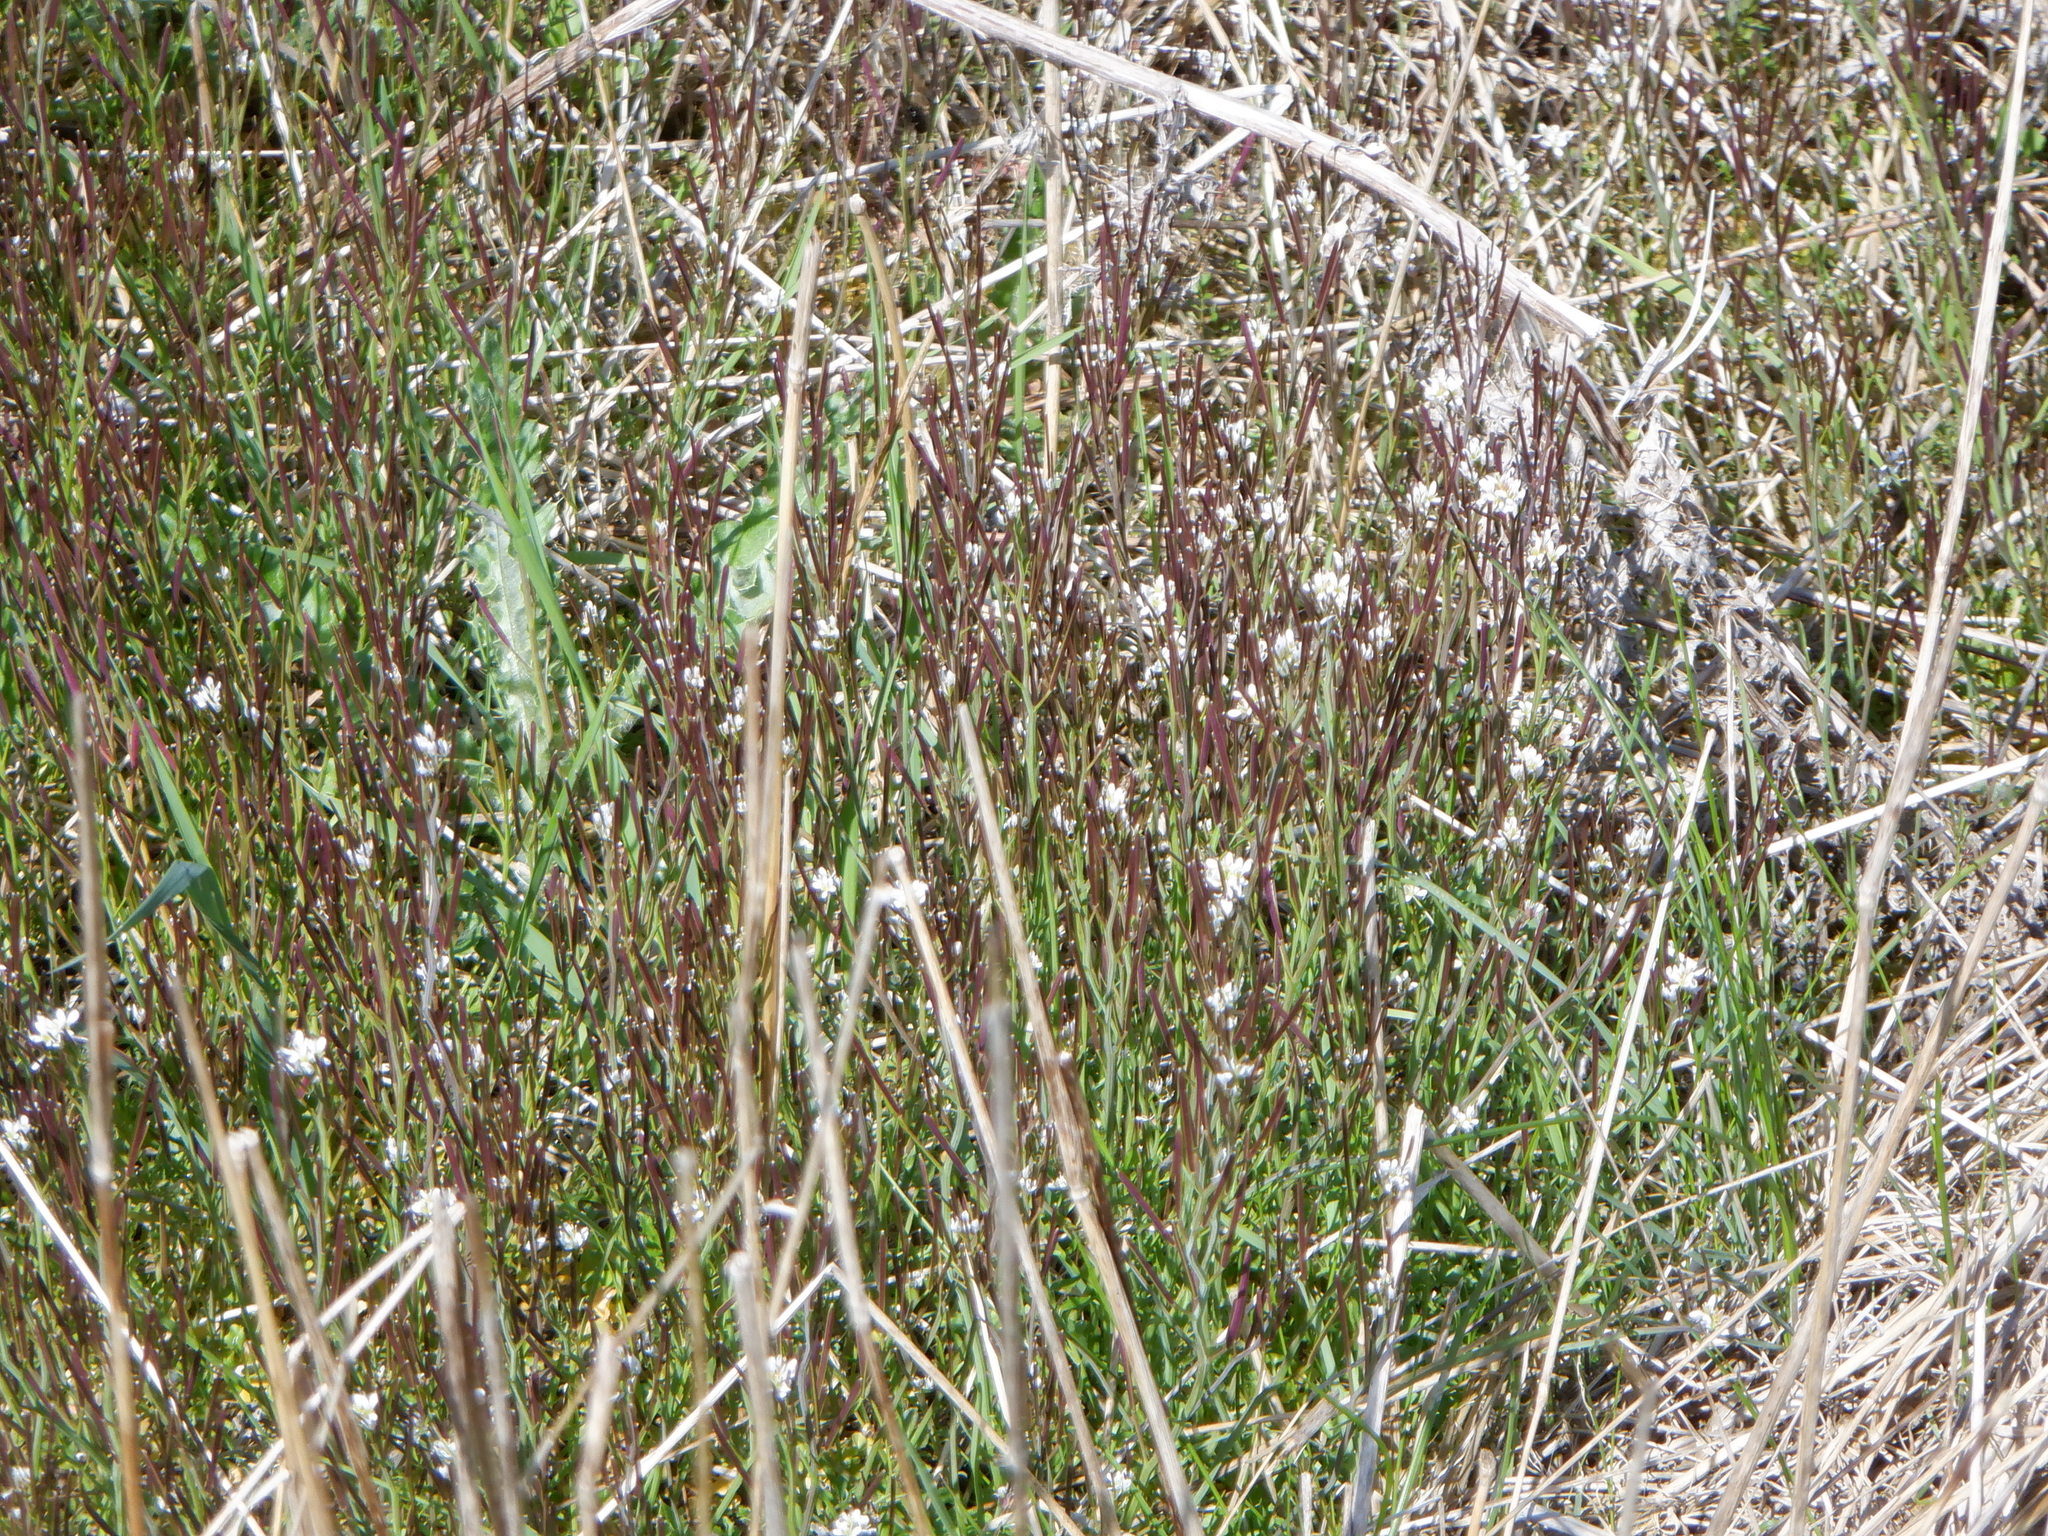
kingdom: Plantae
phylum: Tracheophyta
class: Magnoliopsida
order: Brassicales
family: Brassicaceae
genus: Cardamine
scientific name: Cardamine flexuosa
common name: Woodland bittercress
